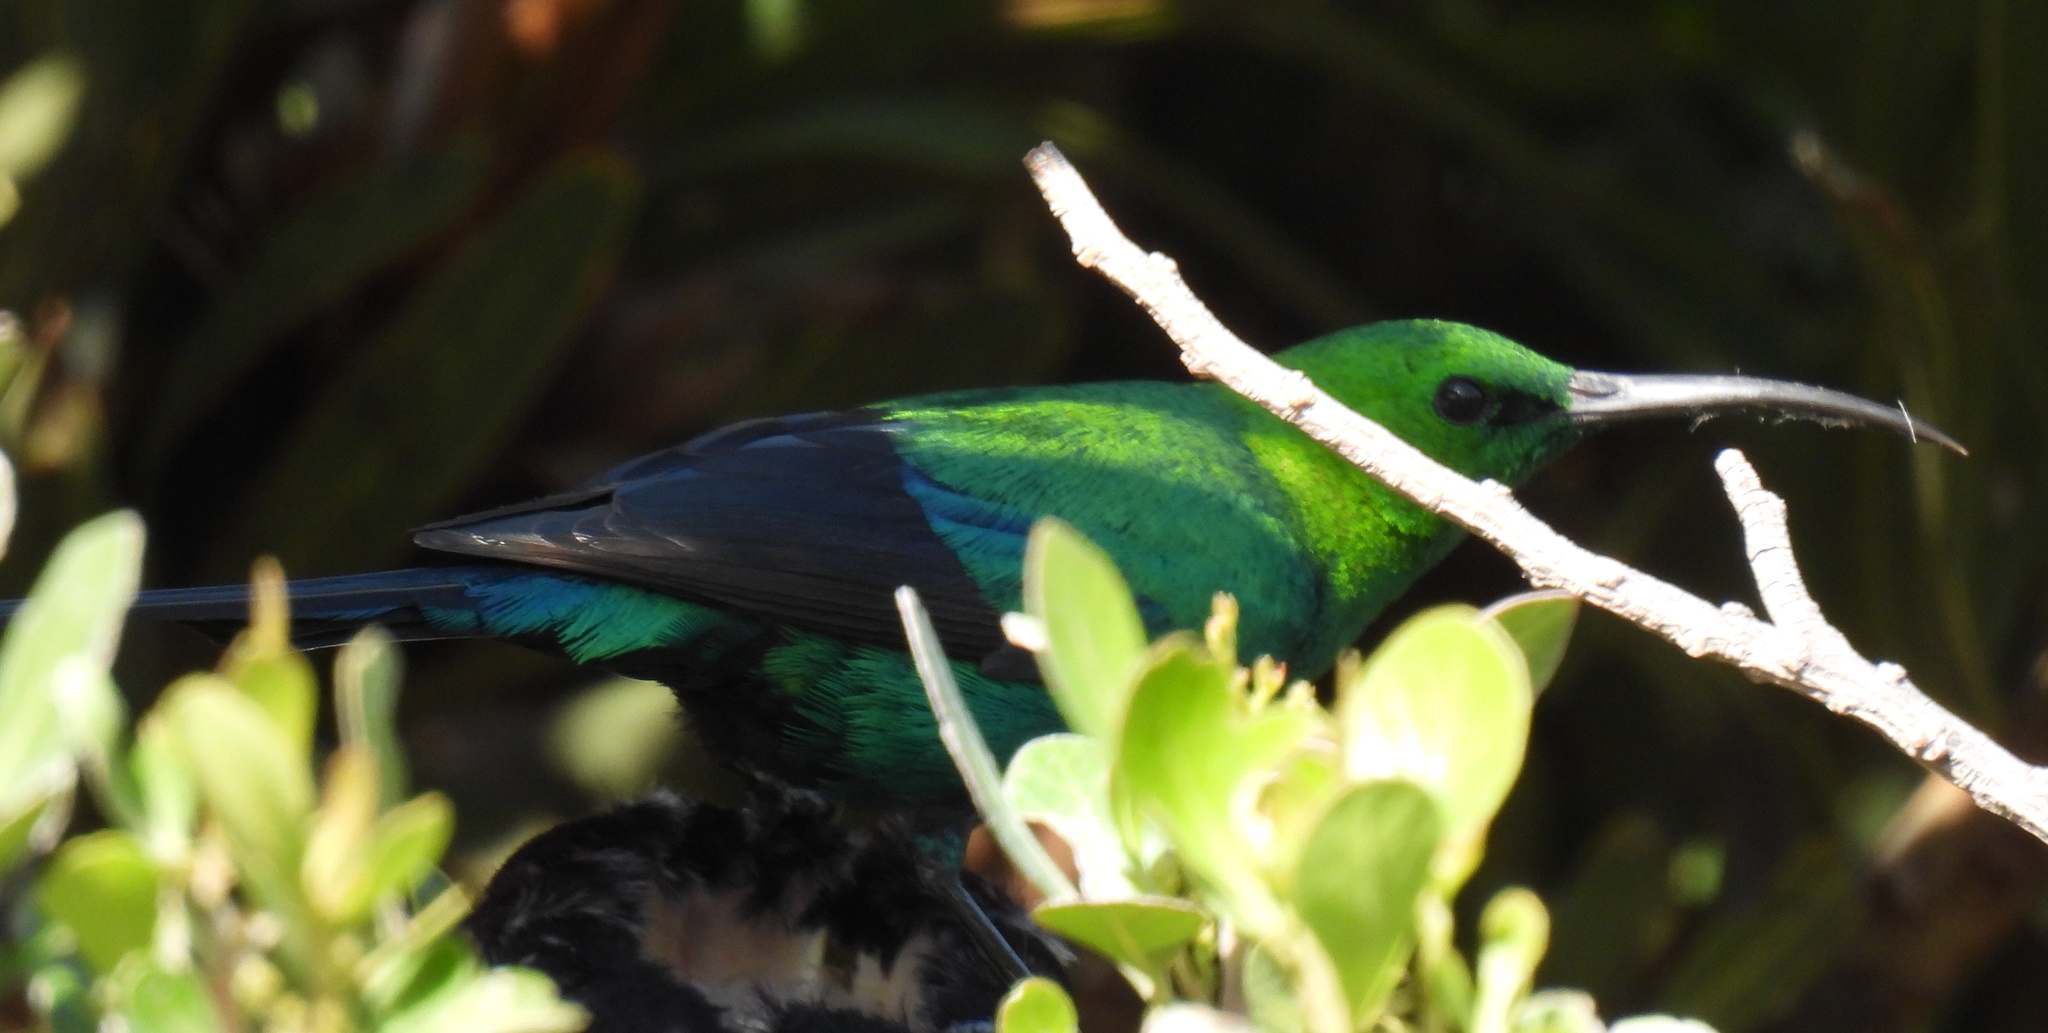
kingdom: Animalia
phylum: Chordata
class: Aves
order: Passeriformes
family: Nectariniidae
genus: Nectarinia
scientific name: Nectarinia famosa
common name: Malachite sunbird
